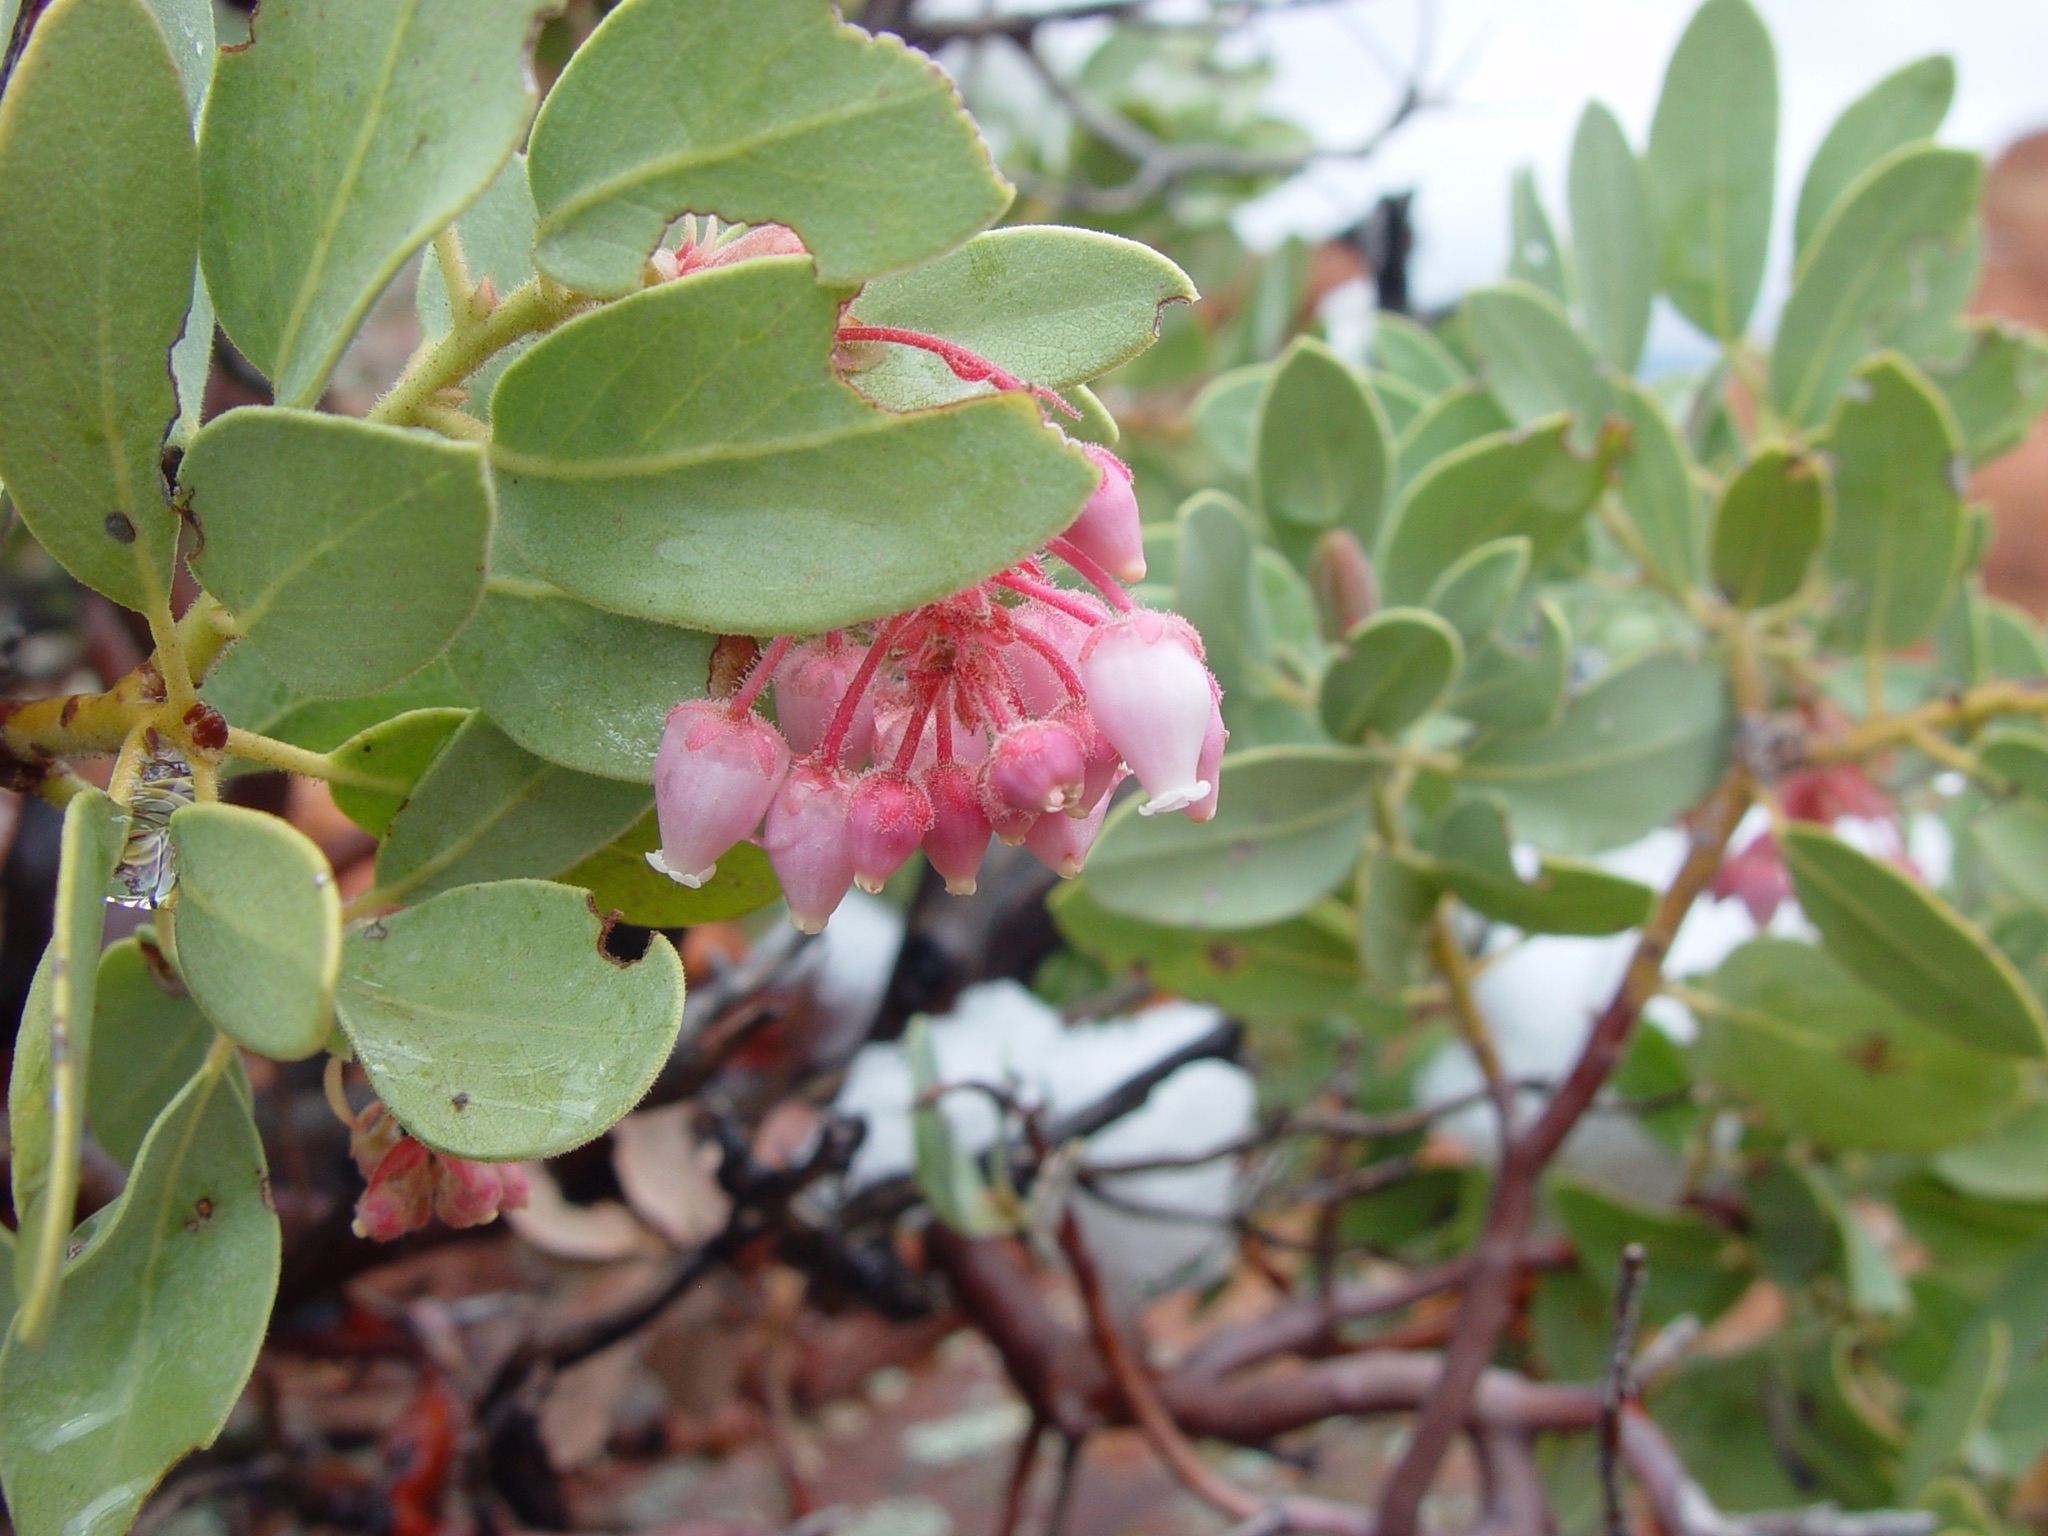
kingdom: Plantae
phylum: Tracheophyta
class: Magnoliopsida
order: Ericales
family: Ericaceae
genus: Arctostaphylos
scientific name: Arctostaphylos pringlei
